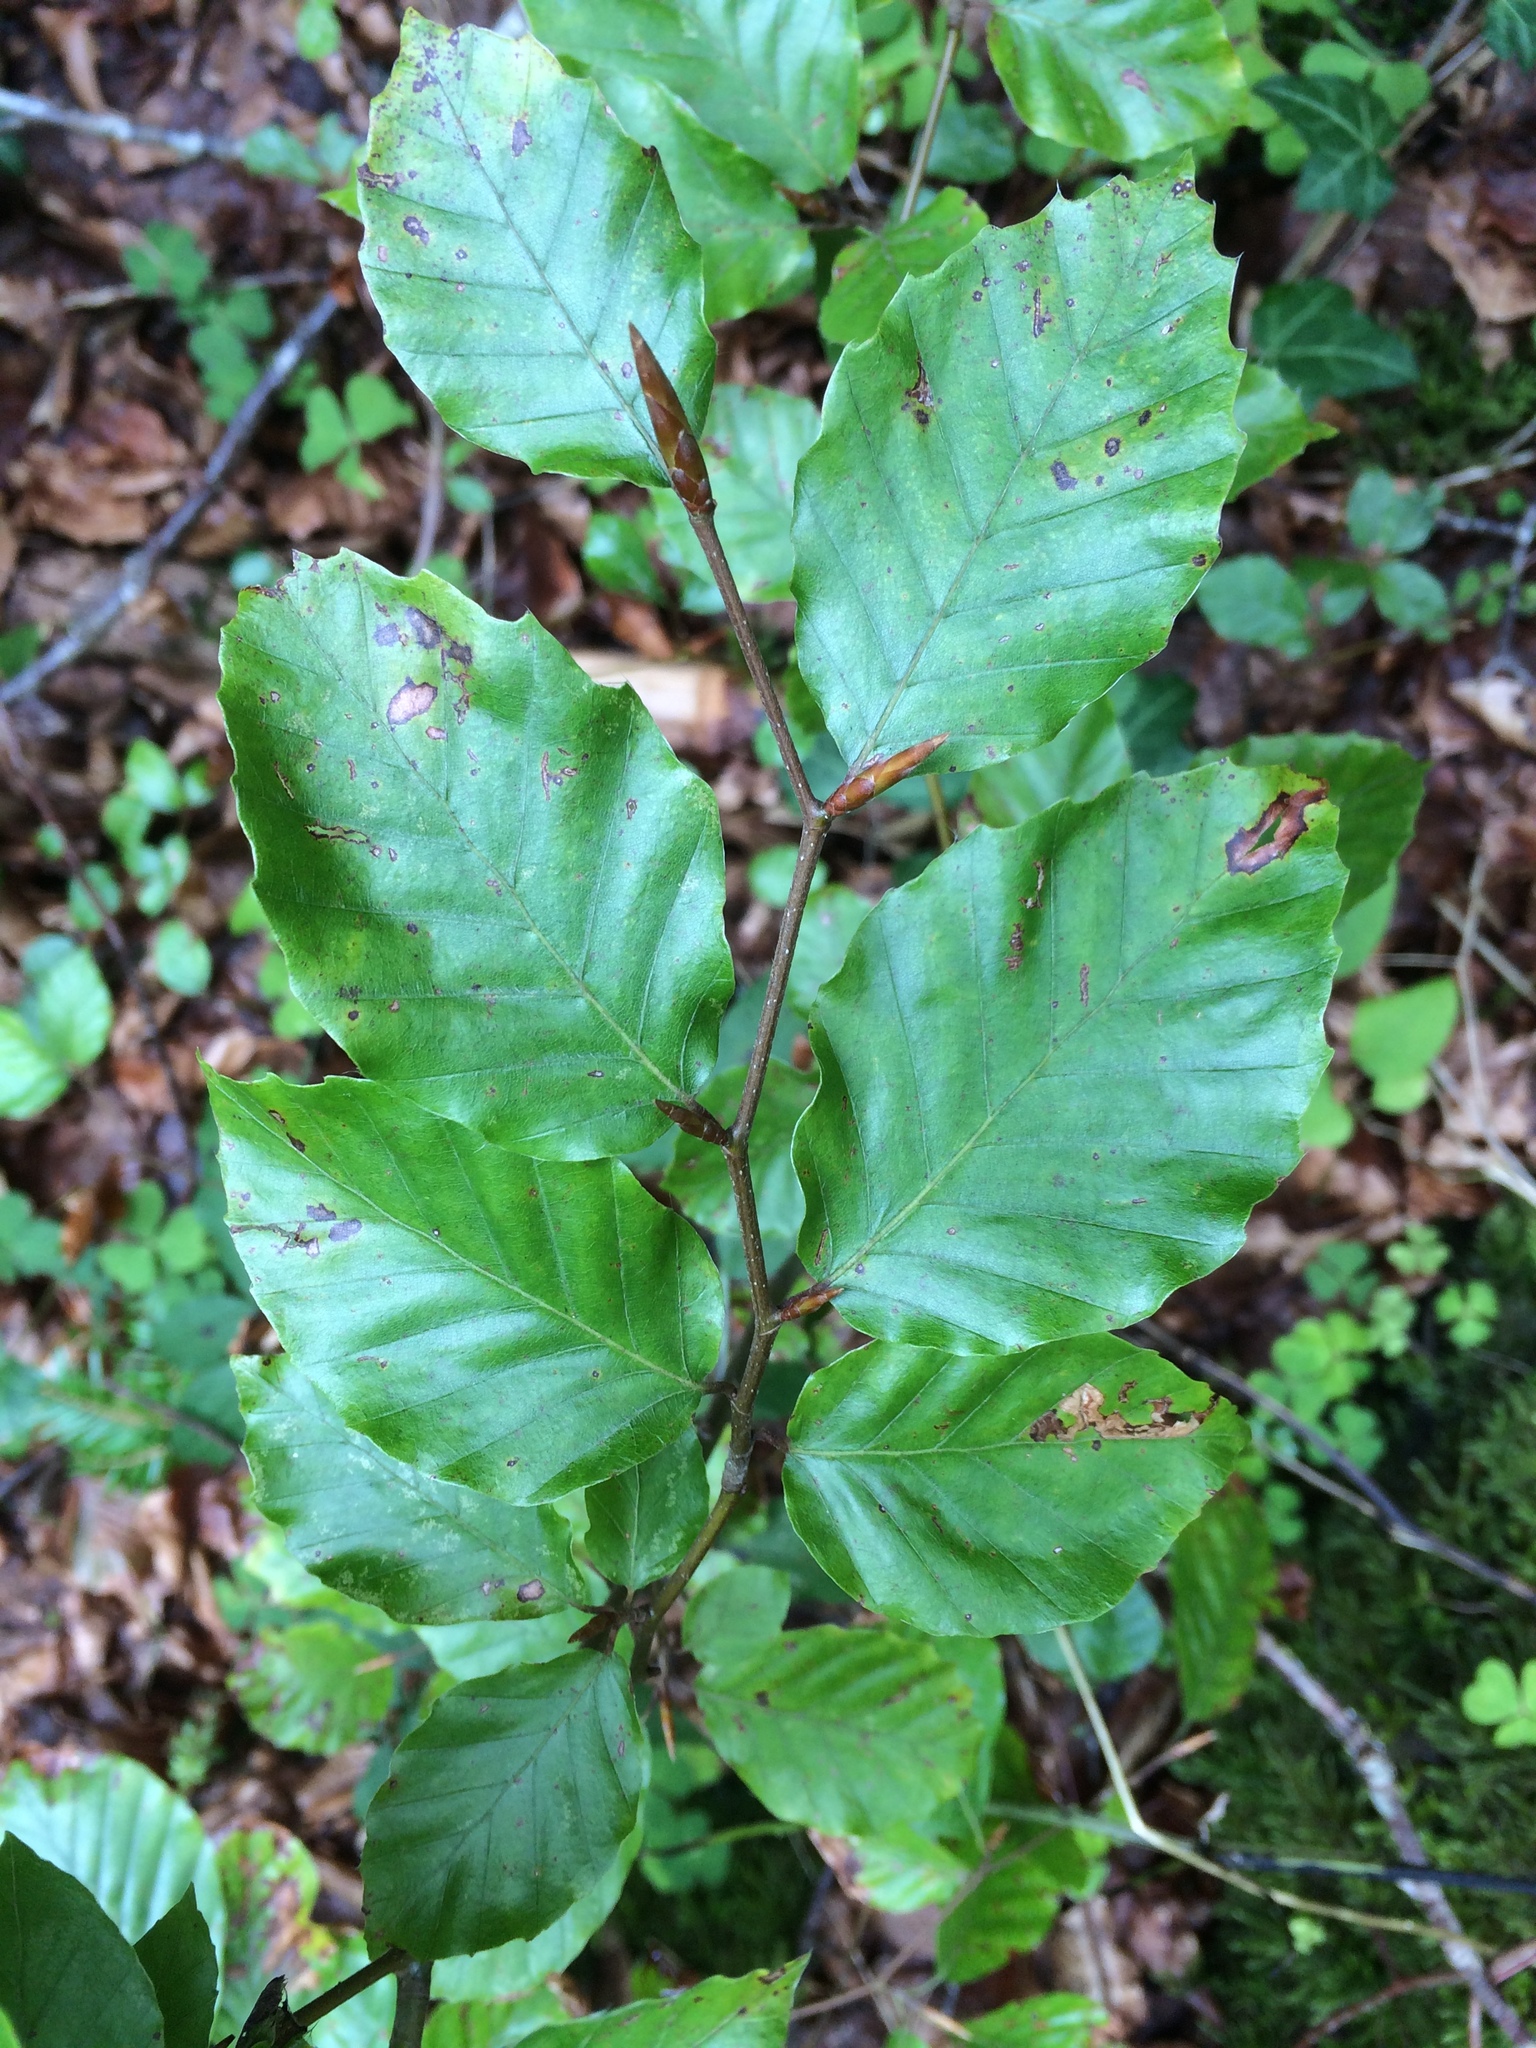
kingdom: Plantae
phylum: Tracheophyta
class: Magnoliopsida
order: Fagales
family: Fagaceae
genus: Fagus
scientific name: Fagus sylvatica
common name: Beech
